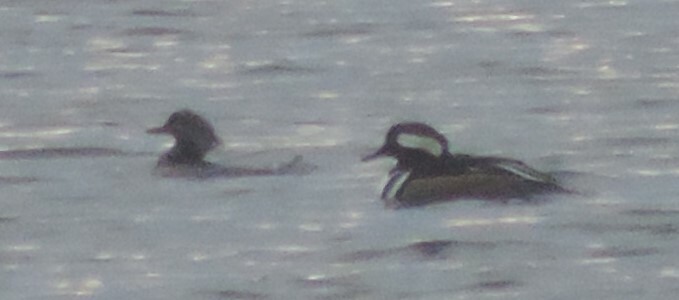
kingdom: Animalia
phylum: Chordata
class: Aves
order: Anseriformes
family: Anatidae
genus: Lophodytes
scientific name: Lophodytes cucullatus
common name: Hooded merganser
